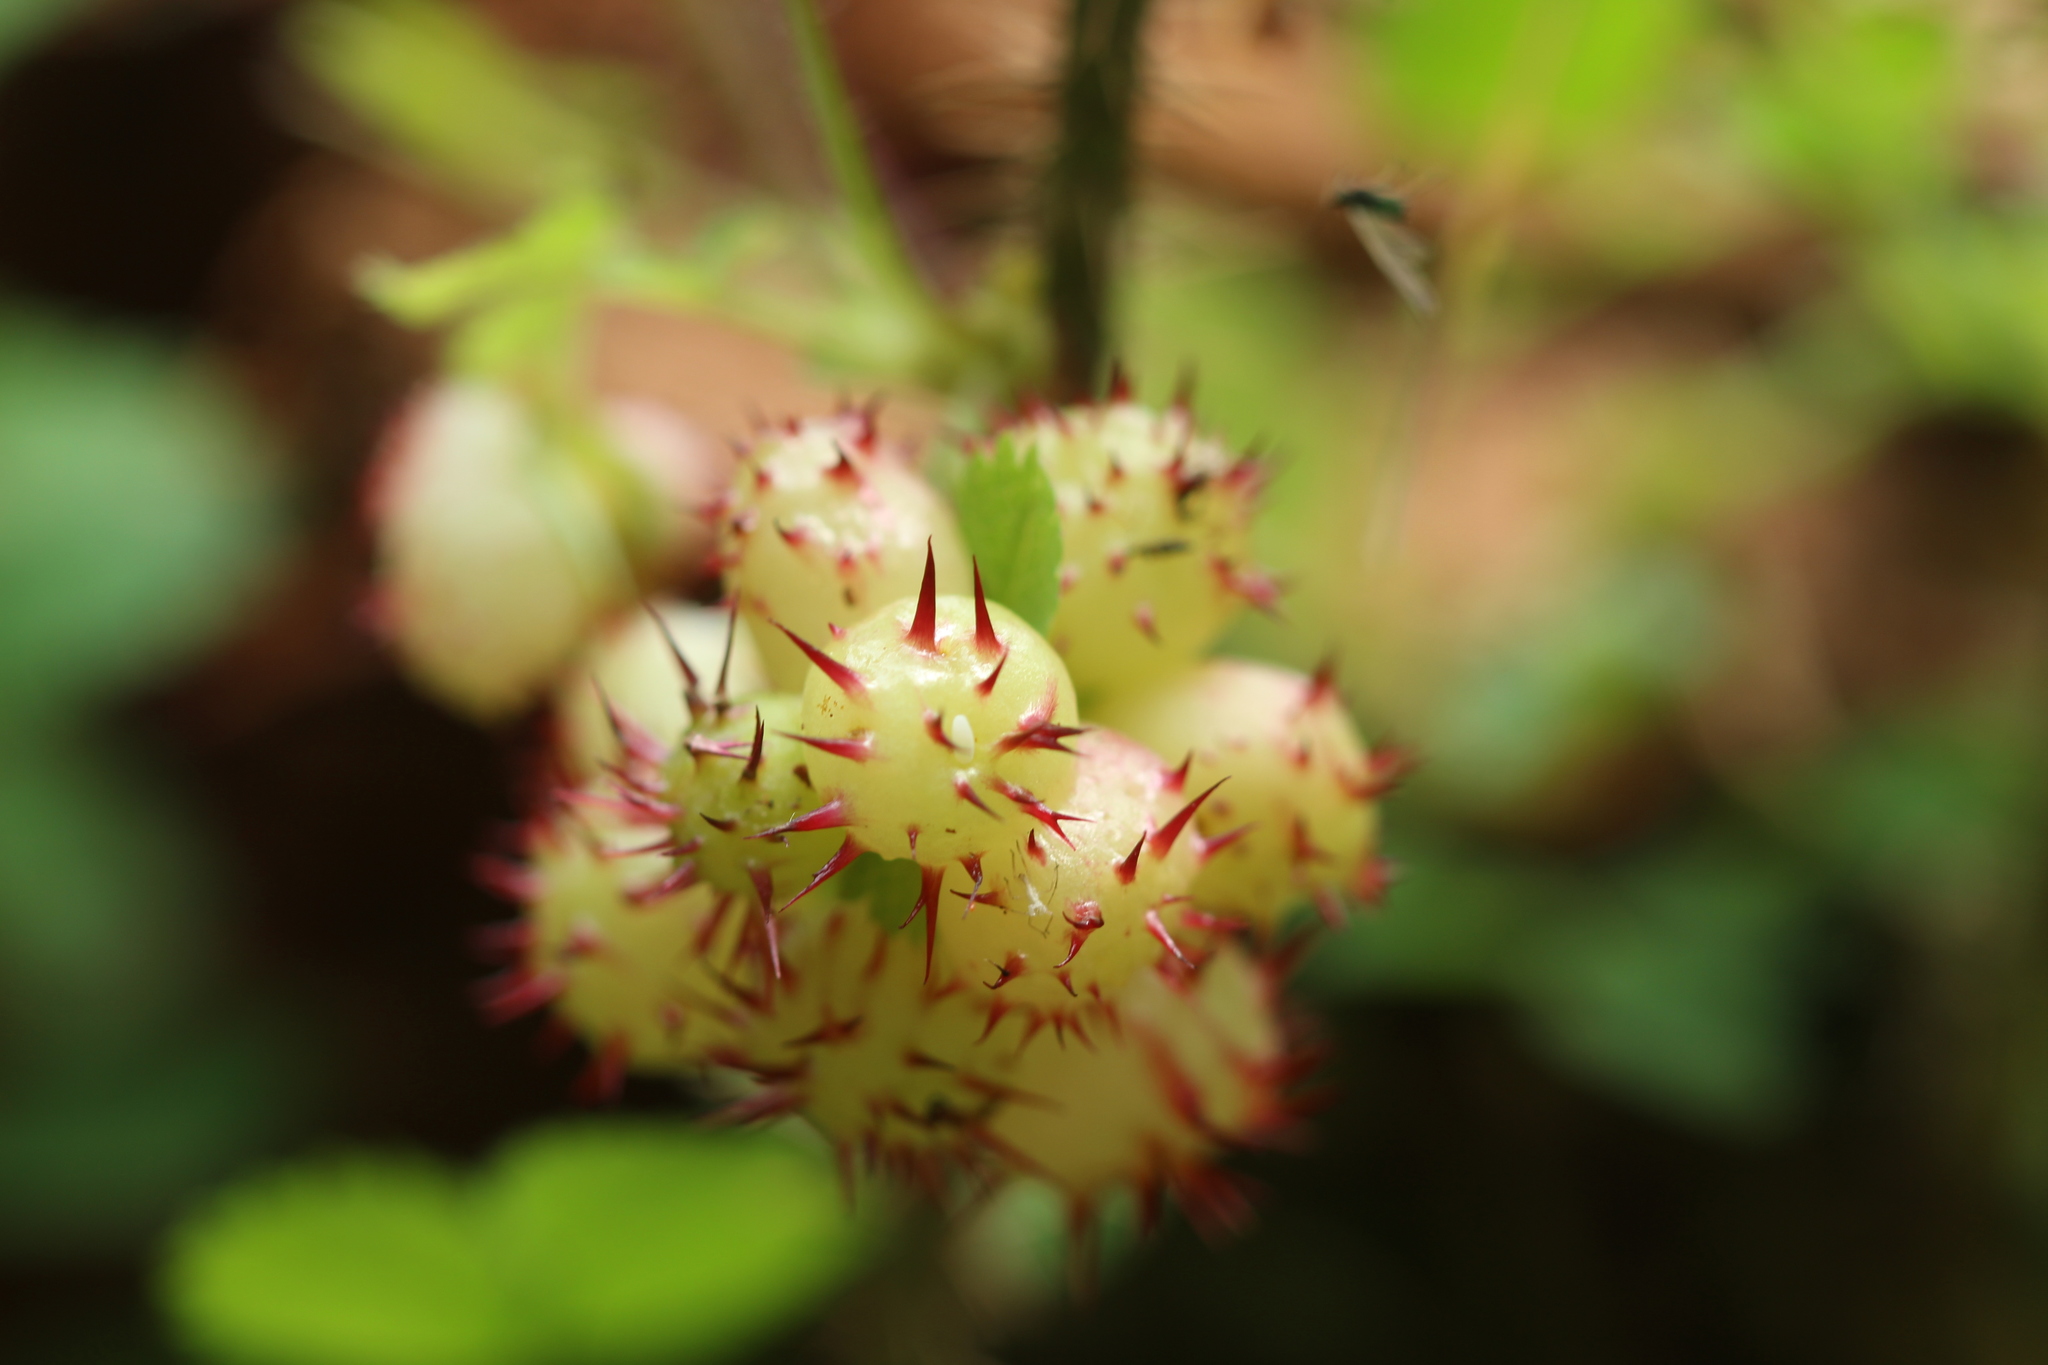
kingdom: Animalia
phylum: Arthropoda
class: Insecta
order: Hymenoptera
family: Cynipidae
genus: Diplolepis
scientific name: Diplolepis polita
